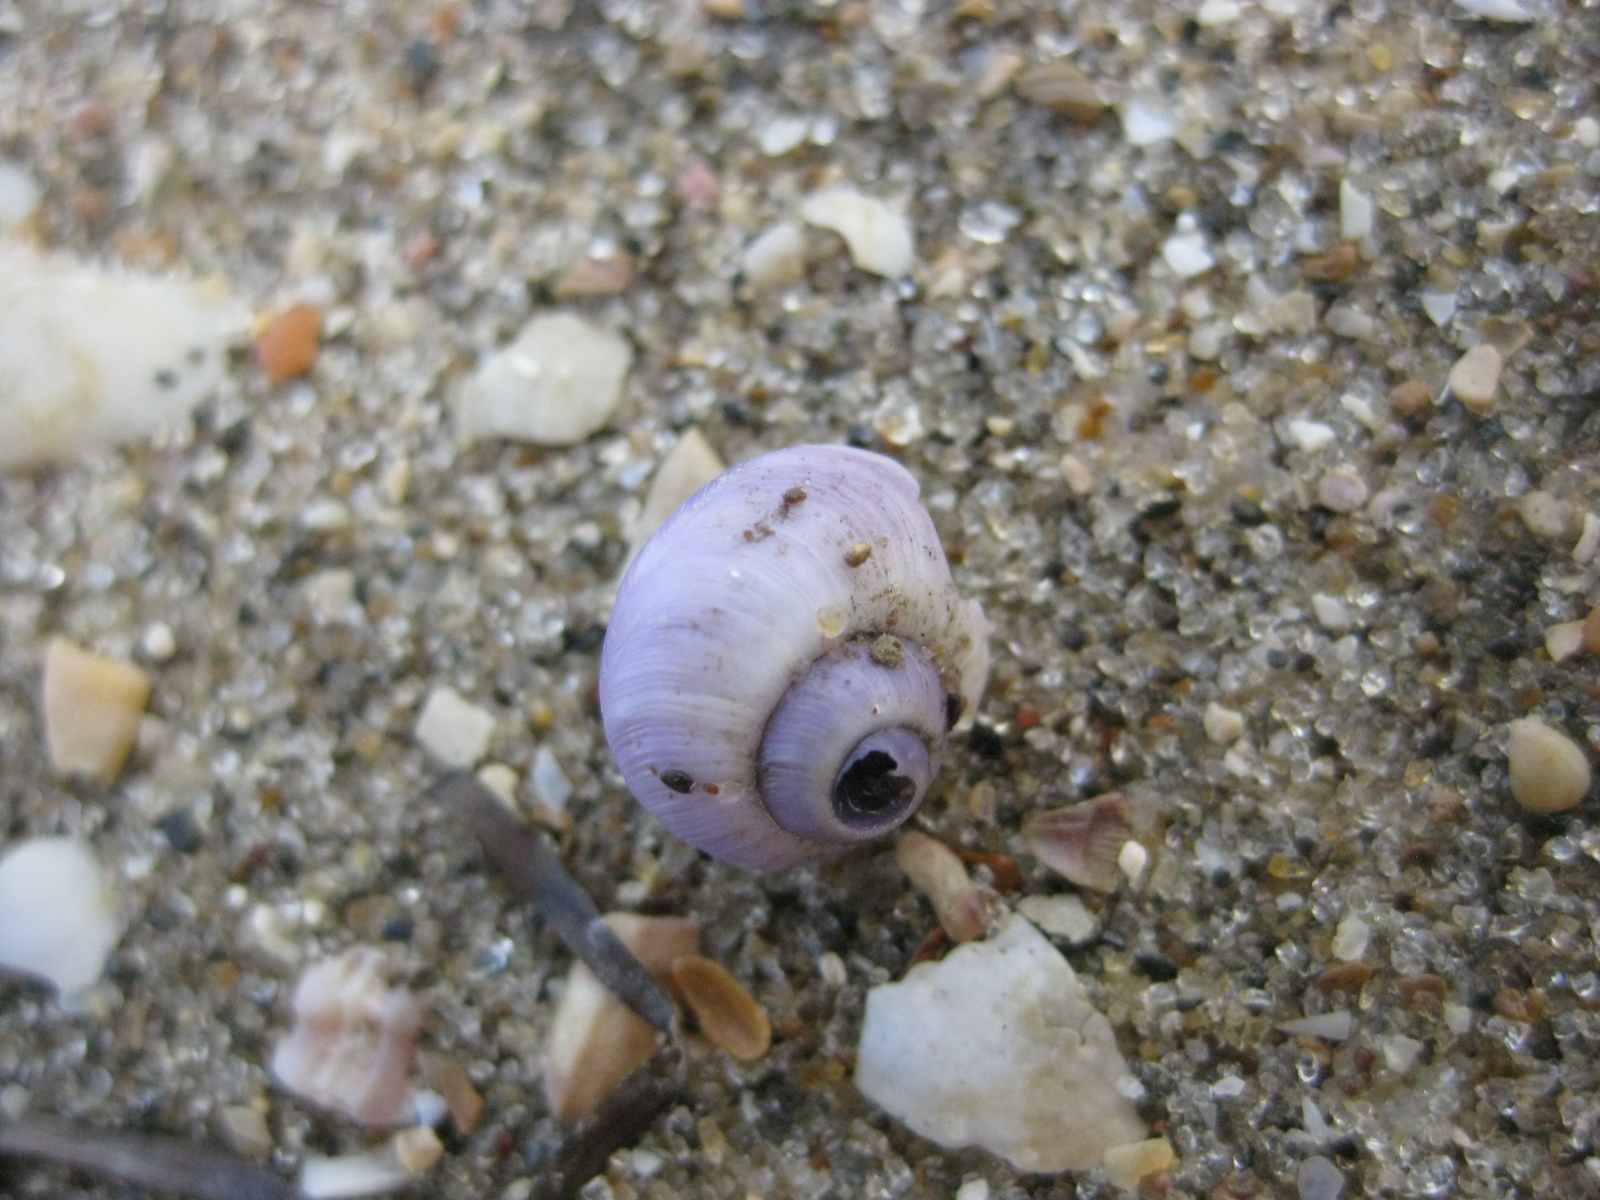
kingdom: Animalia
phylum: Mollusca
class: Gastropoda
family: Epitoniidae
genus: Janthina
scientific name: Janthina exigua
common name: Dwarf janthina
